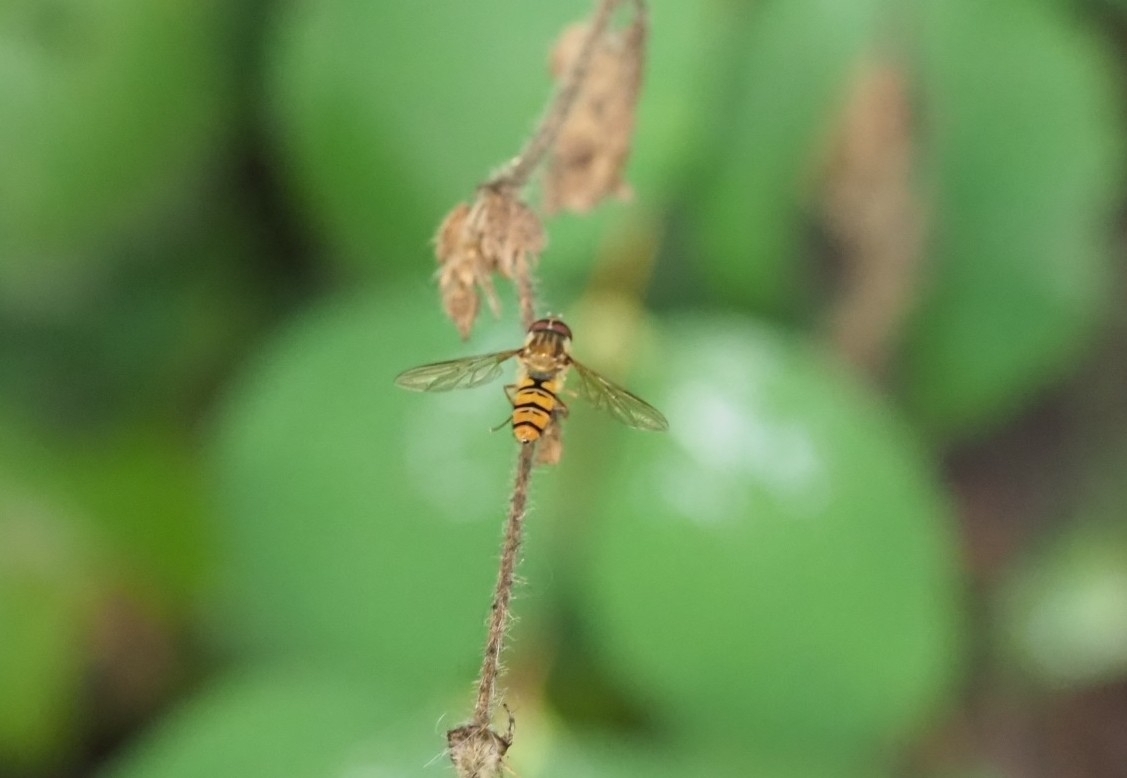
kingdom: Animalia
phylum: Arthropoda
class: Insecta
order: Diptera
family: Syrphidae
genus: Episyrphus
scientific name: Episyrphus balteatus
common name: Marmalade hoverfly
